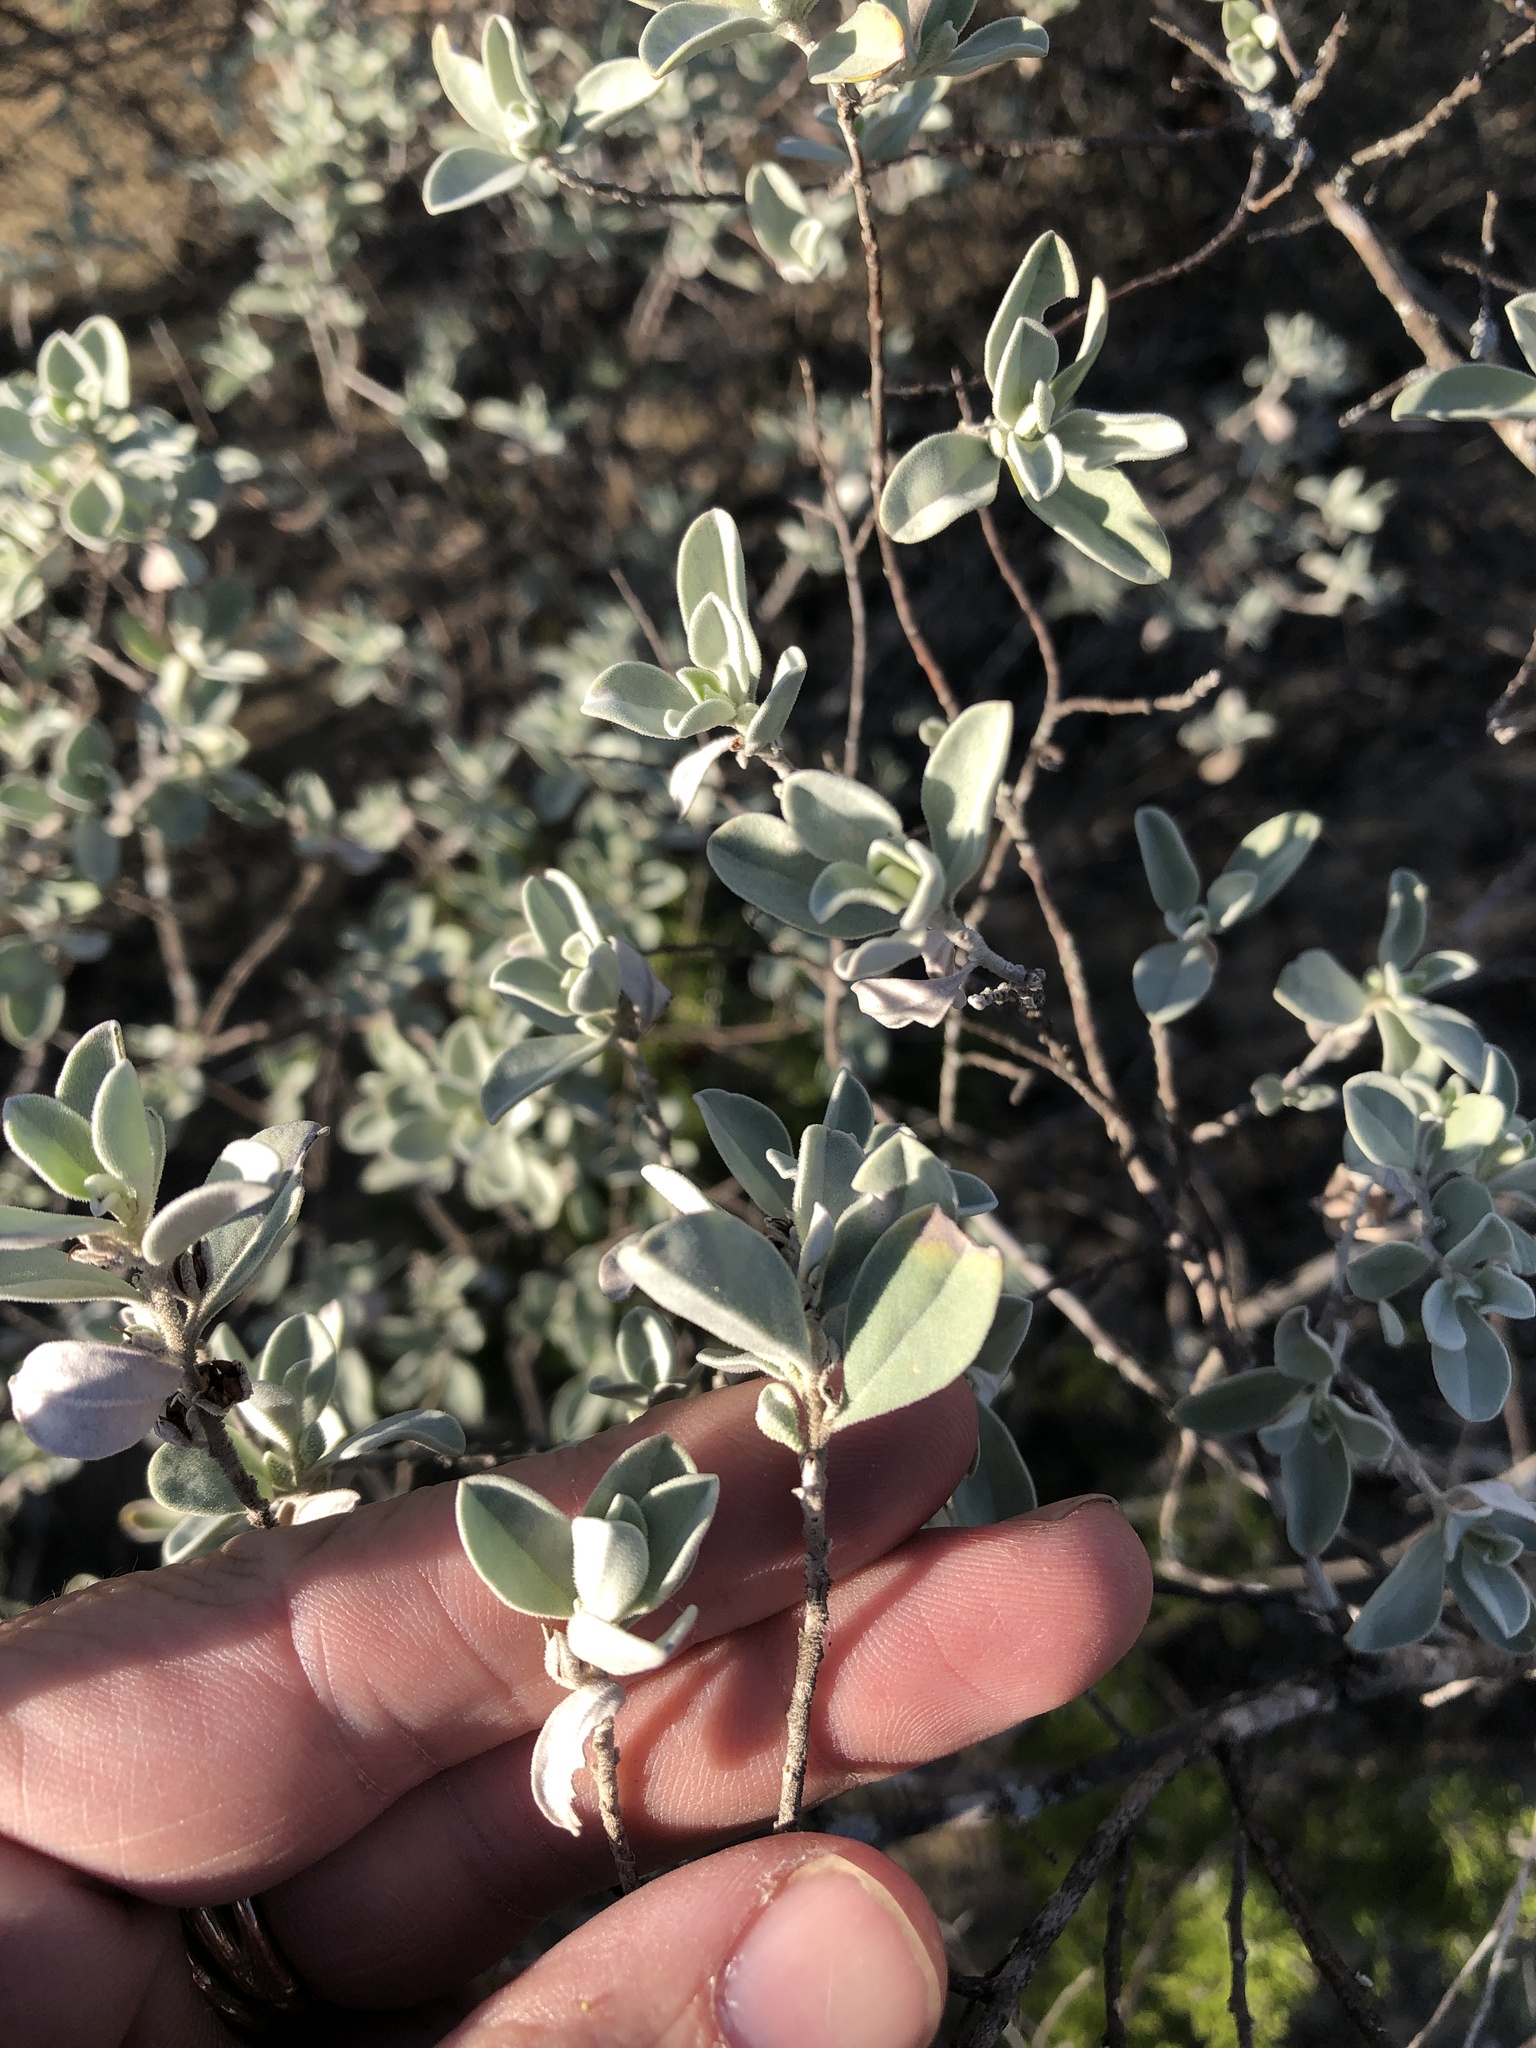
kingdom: Plantae
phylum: Tracheophyta
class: Magnoliopsida
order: Lamiales
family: Scrophulariaceae
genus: Leucophyllum
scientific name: Leucophyllum frutescens
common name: Texas silverleaf
